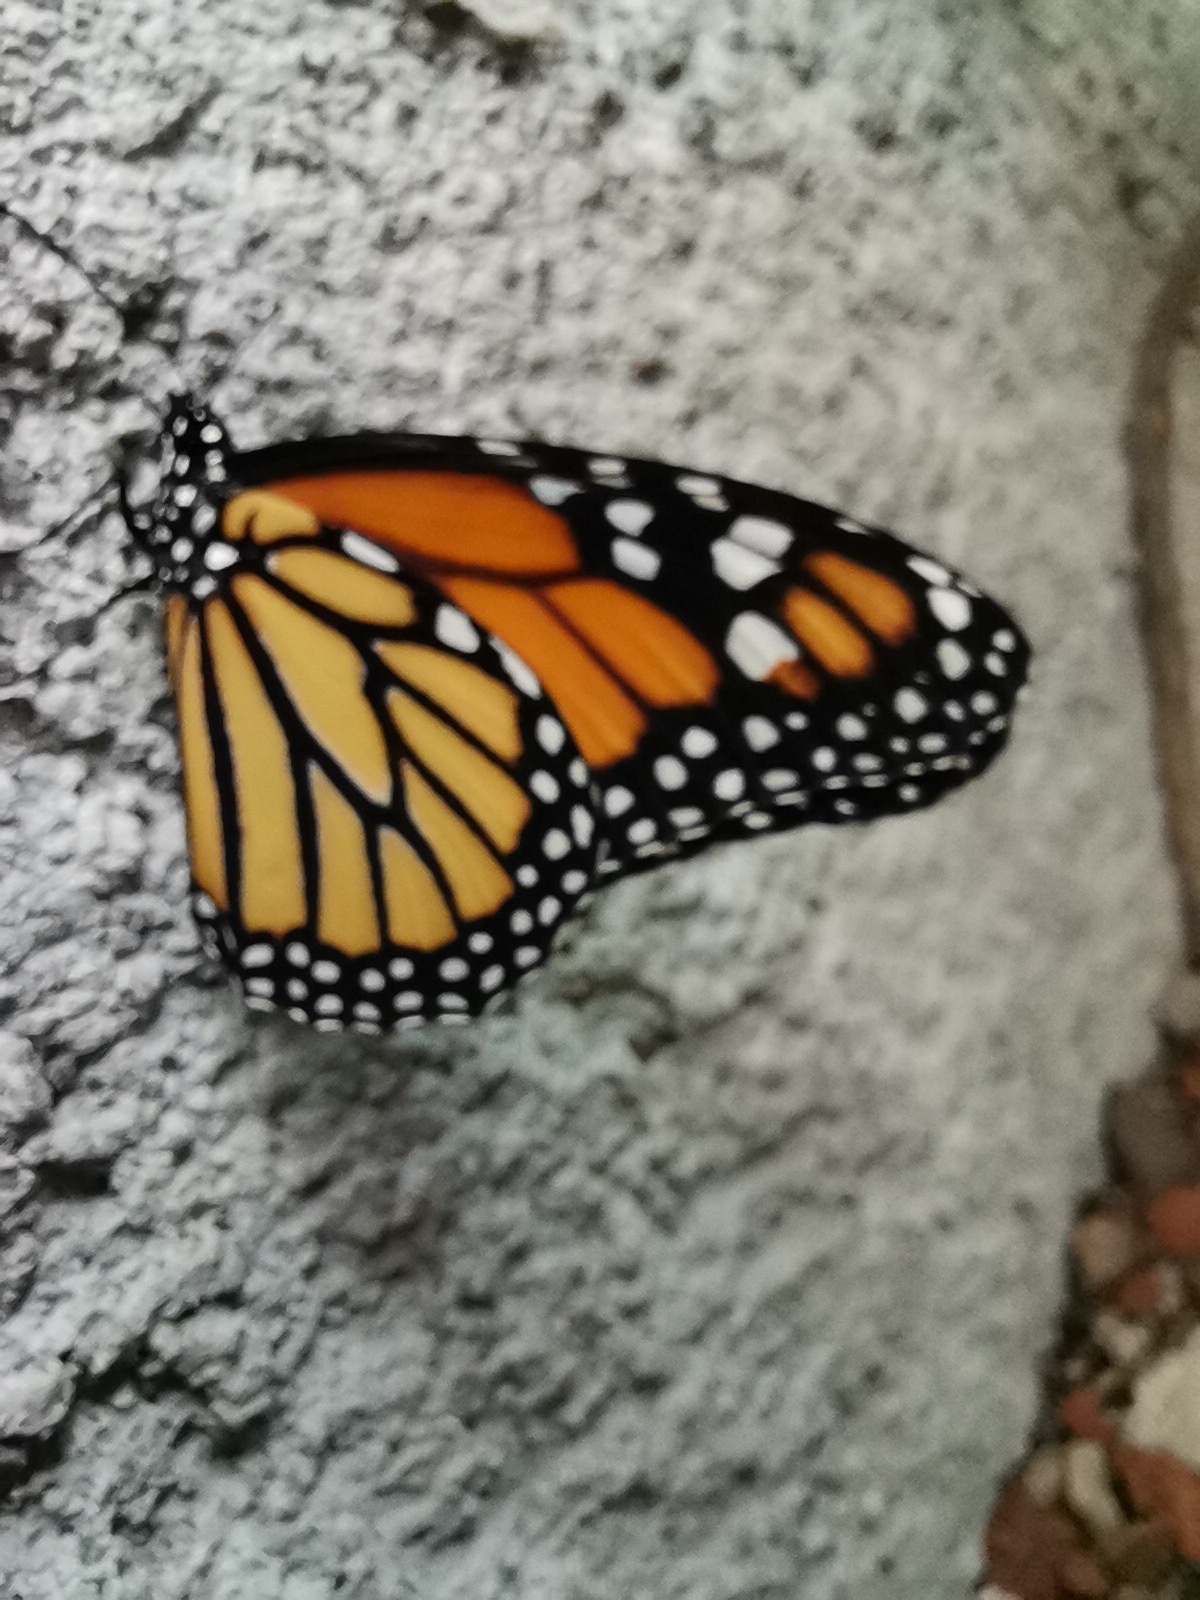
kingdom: Animalia
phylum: Arthropoda
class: Insecta
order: Lepidoptera
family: Nymphalidae
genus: Danaus
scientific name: Danaus plexippus
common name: Monarch
